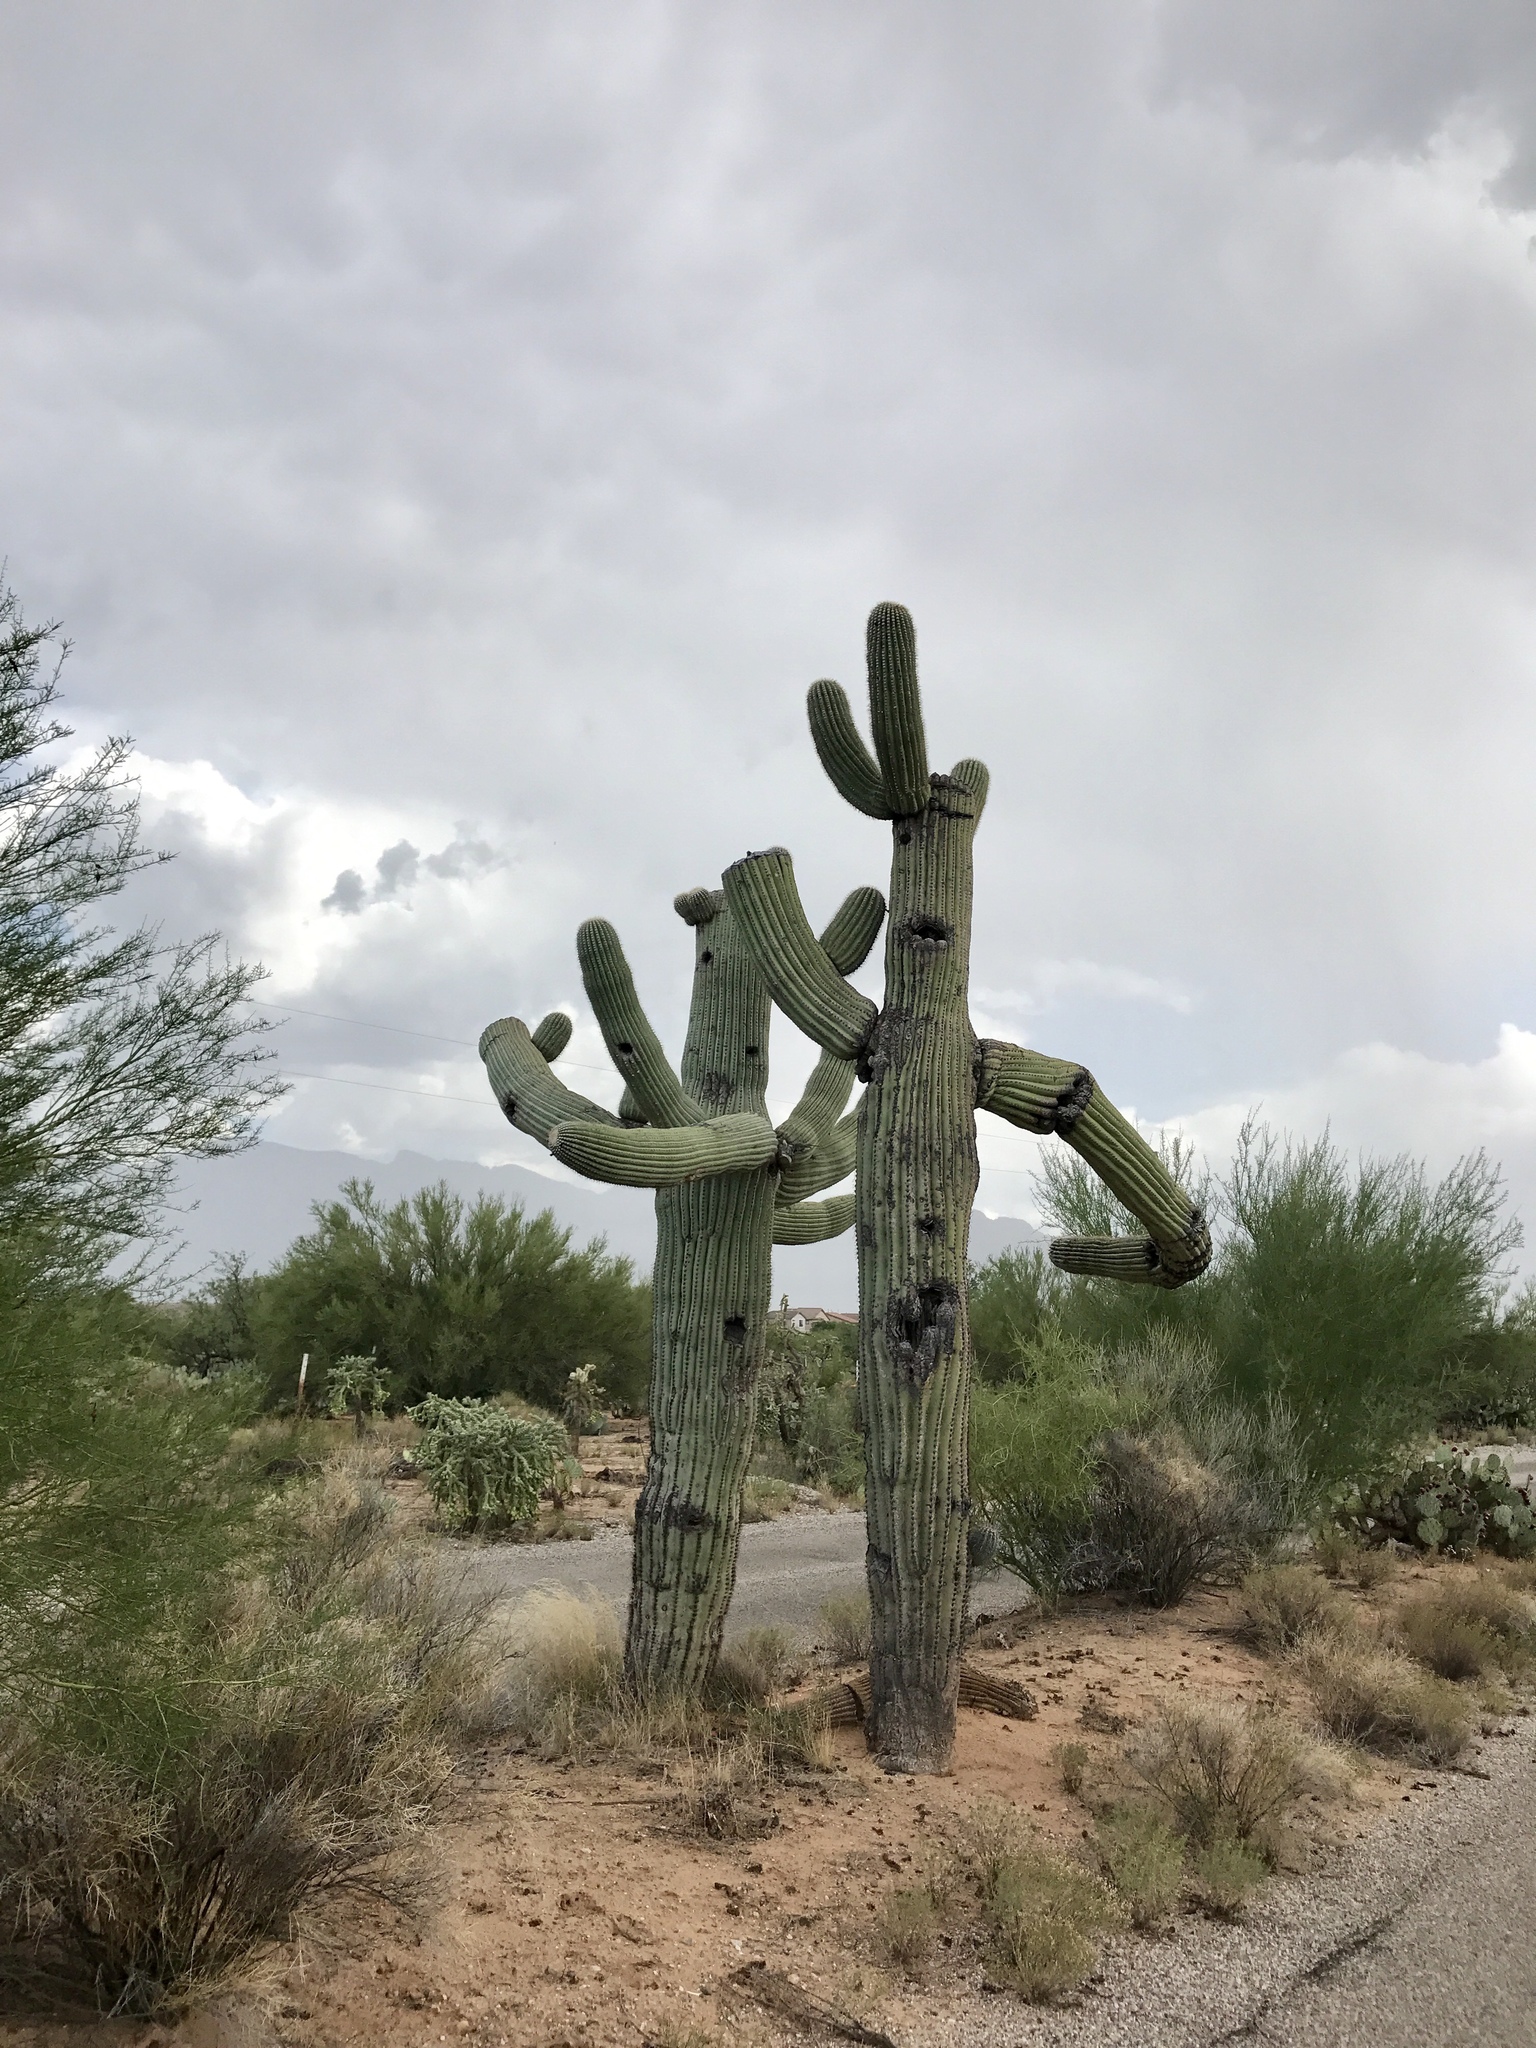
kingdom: Plantae
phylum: Tracheophyta
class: Magnoliopsida
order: Caryophyllales
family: Cactaceae
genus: Carnegiea
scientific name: Carnegiea gigantea
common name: Saguaro
